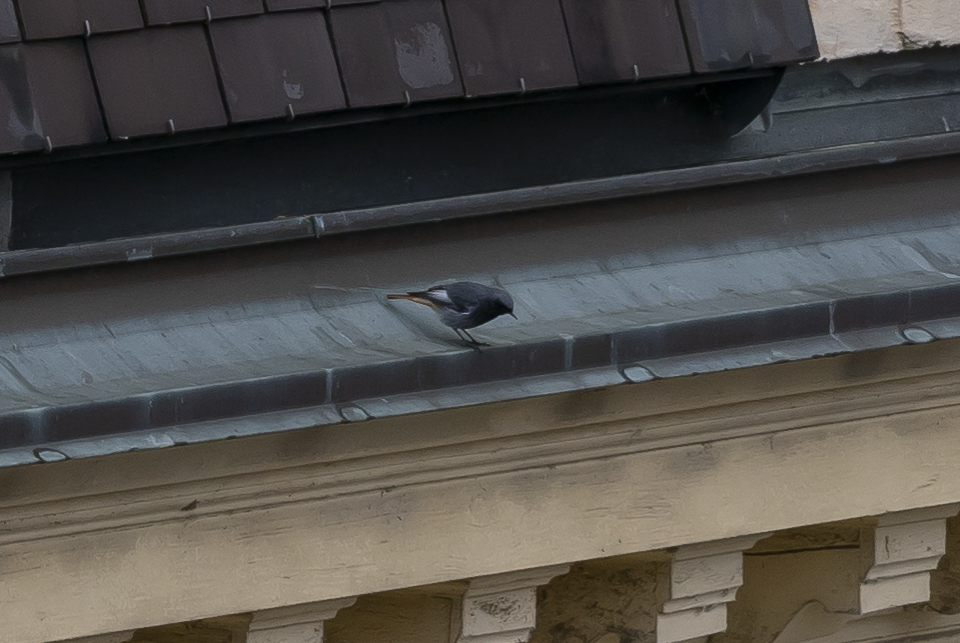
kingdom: Animalia
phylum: Chordata
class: Aves
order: Passeriformes
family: Muscicapidae
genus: Phoenicurus
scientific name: Phoenicurus ochruros
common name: Black redstart
